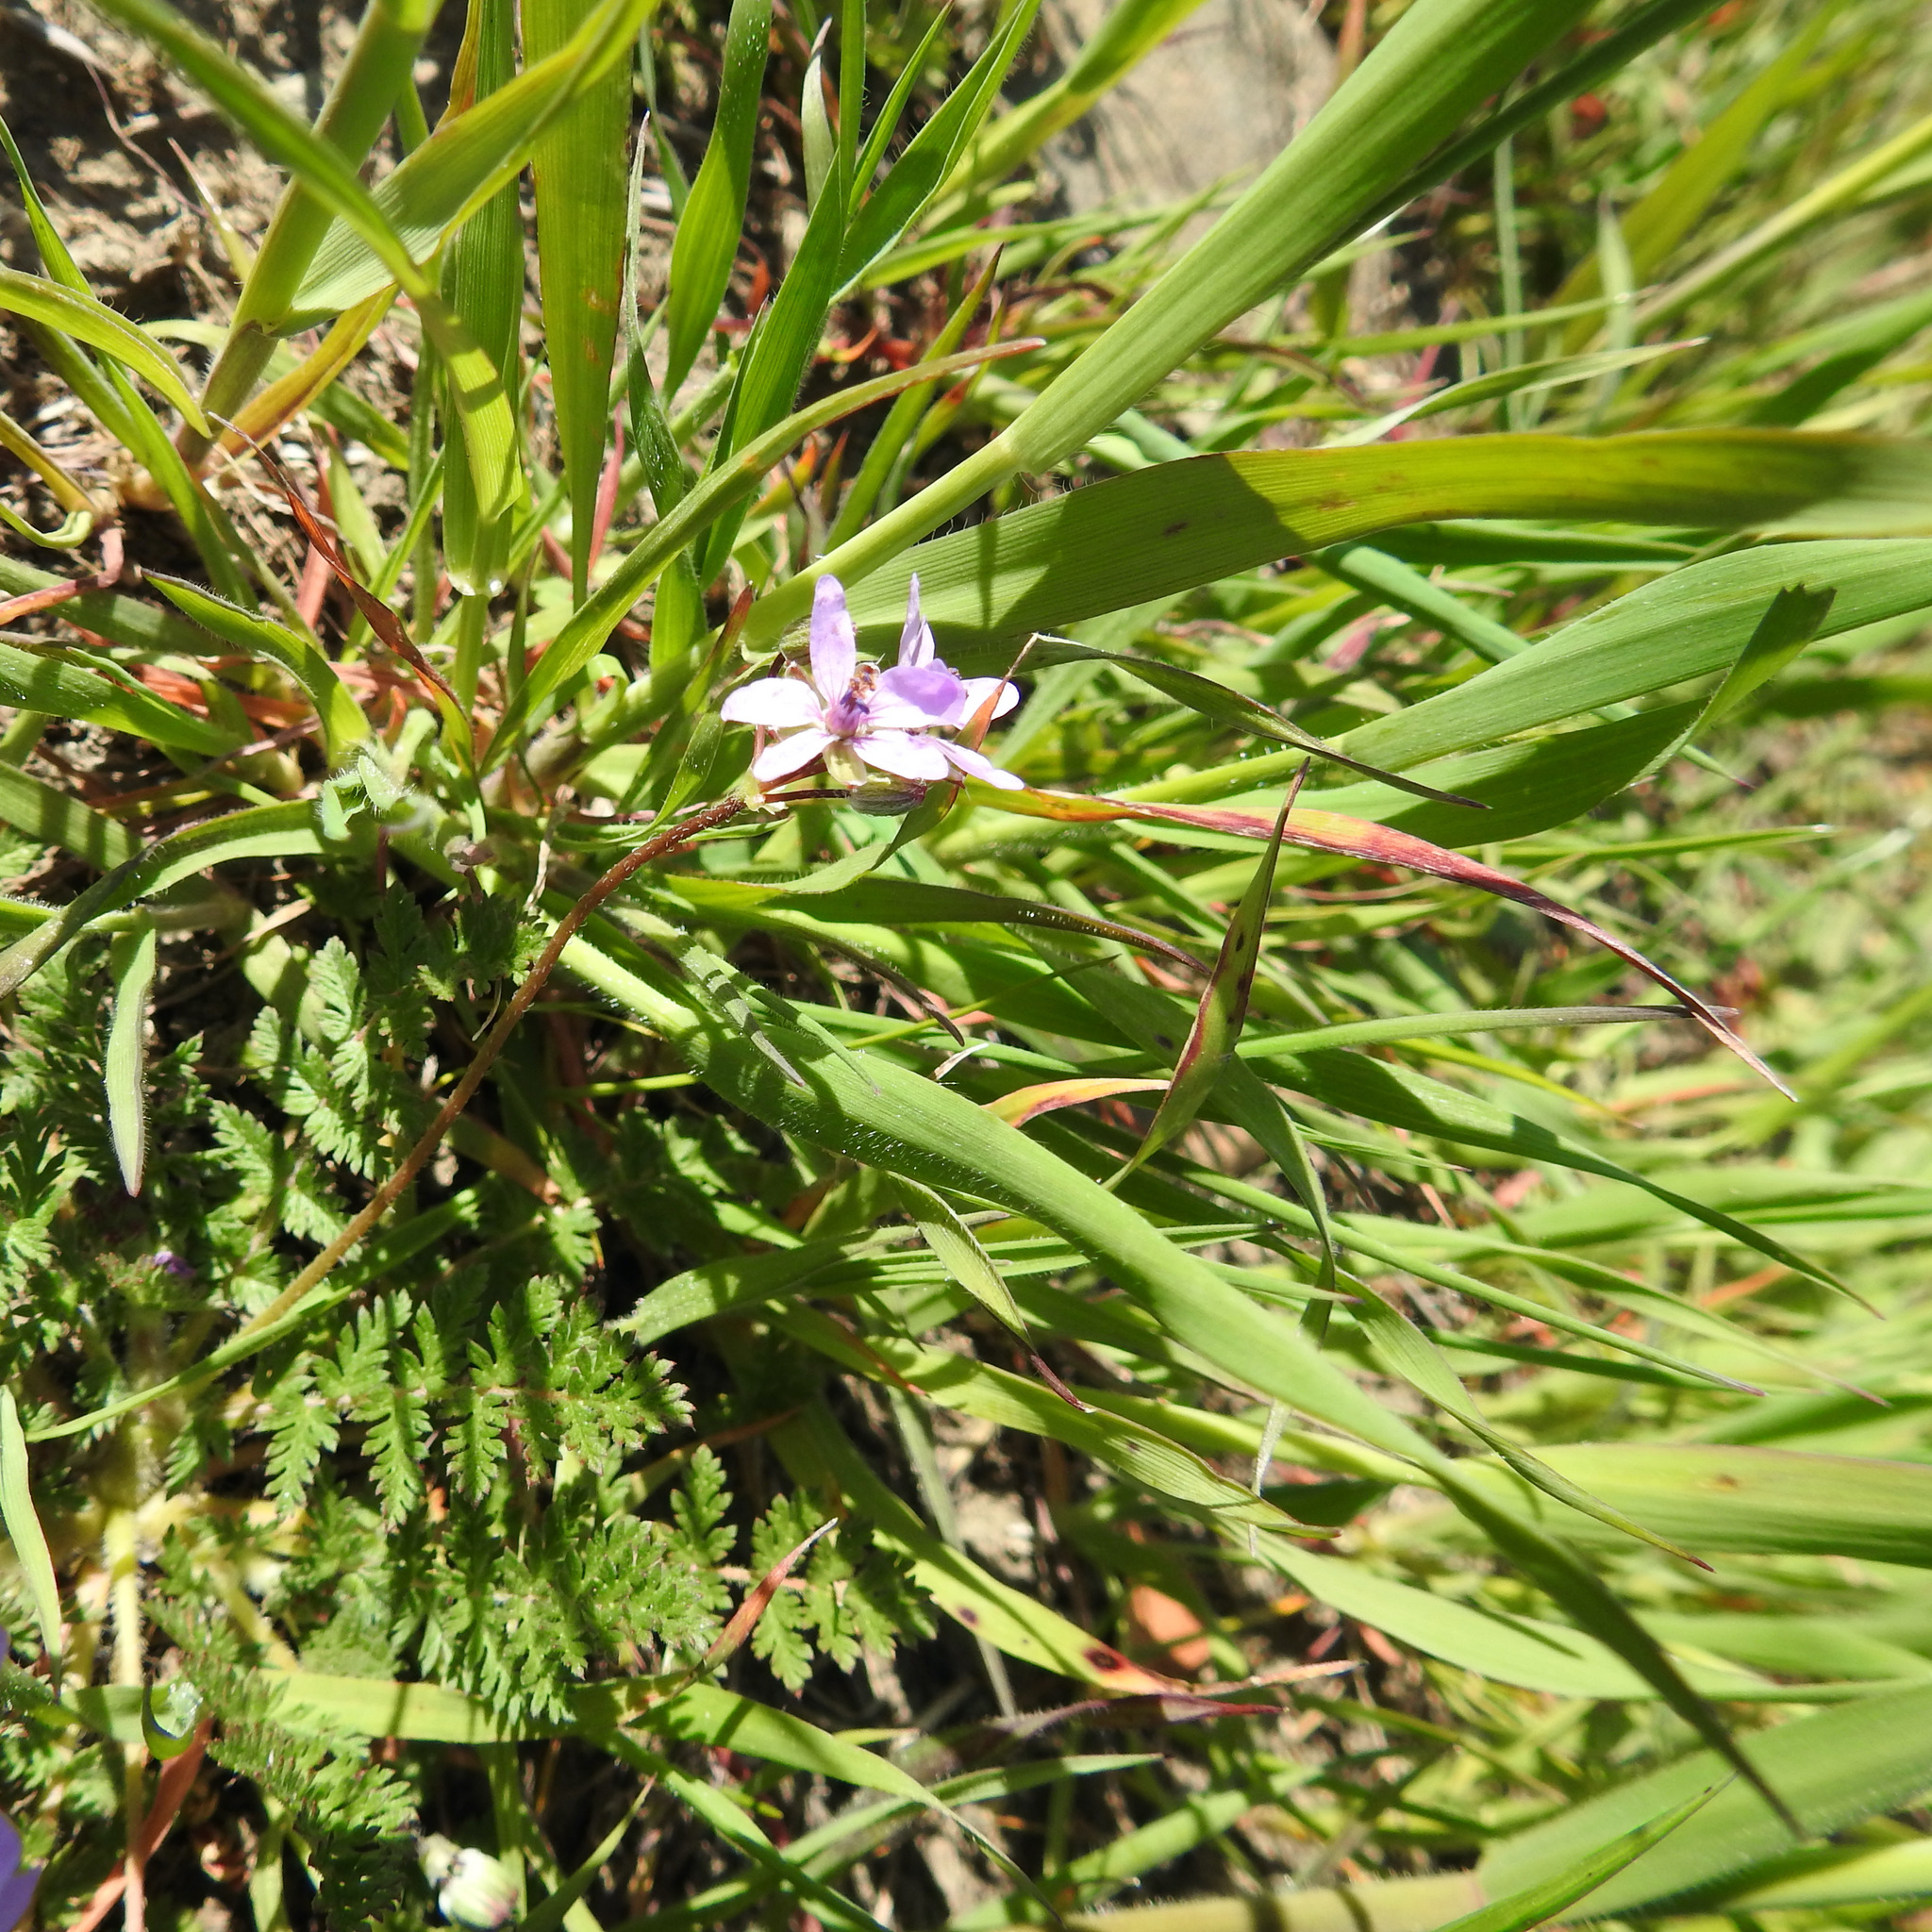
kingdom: Plantae
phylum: Tracheophyta
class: Magnoliopsida
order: Geraniales
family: Geraniaceae
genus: Erodium
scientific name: Erodium cicutarium
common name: Common stork's-bill
